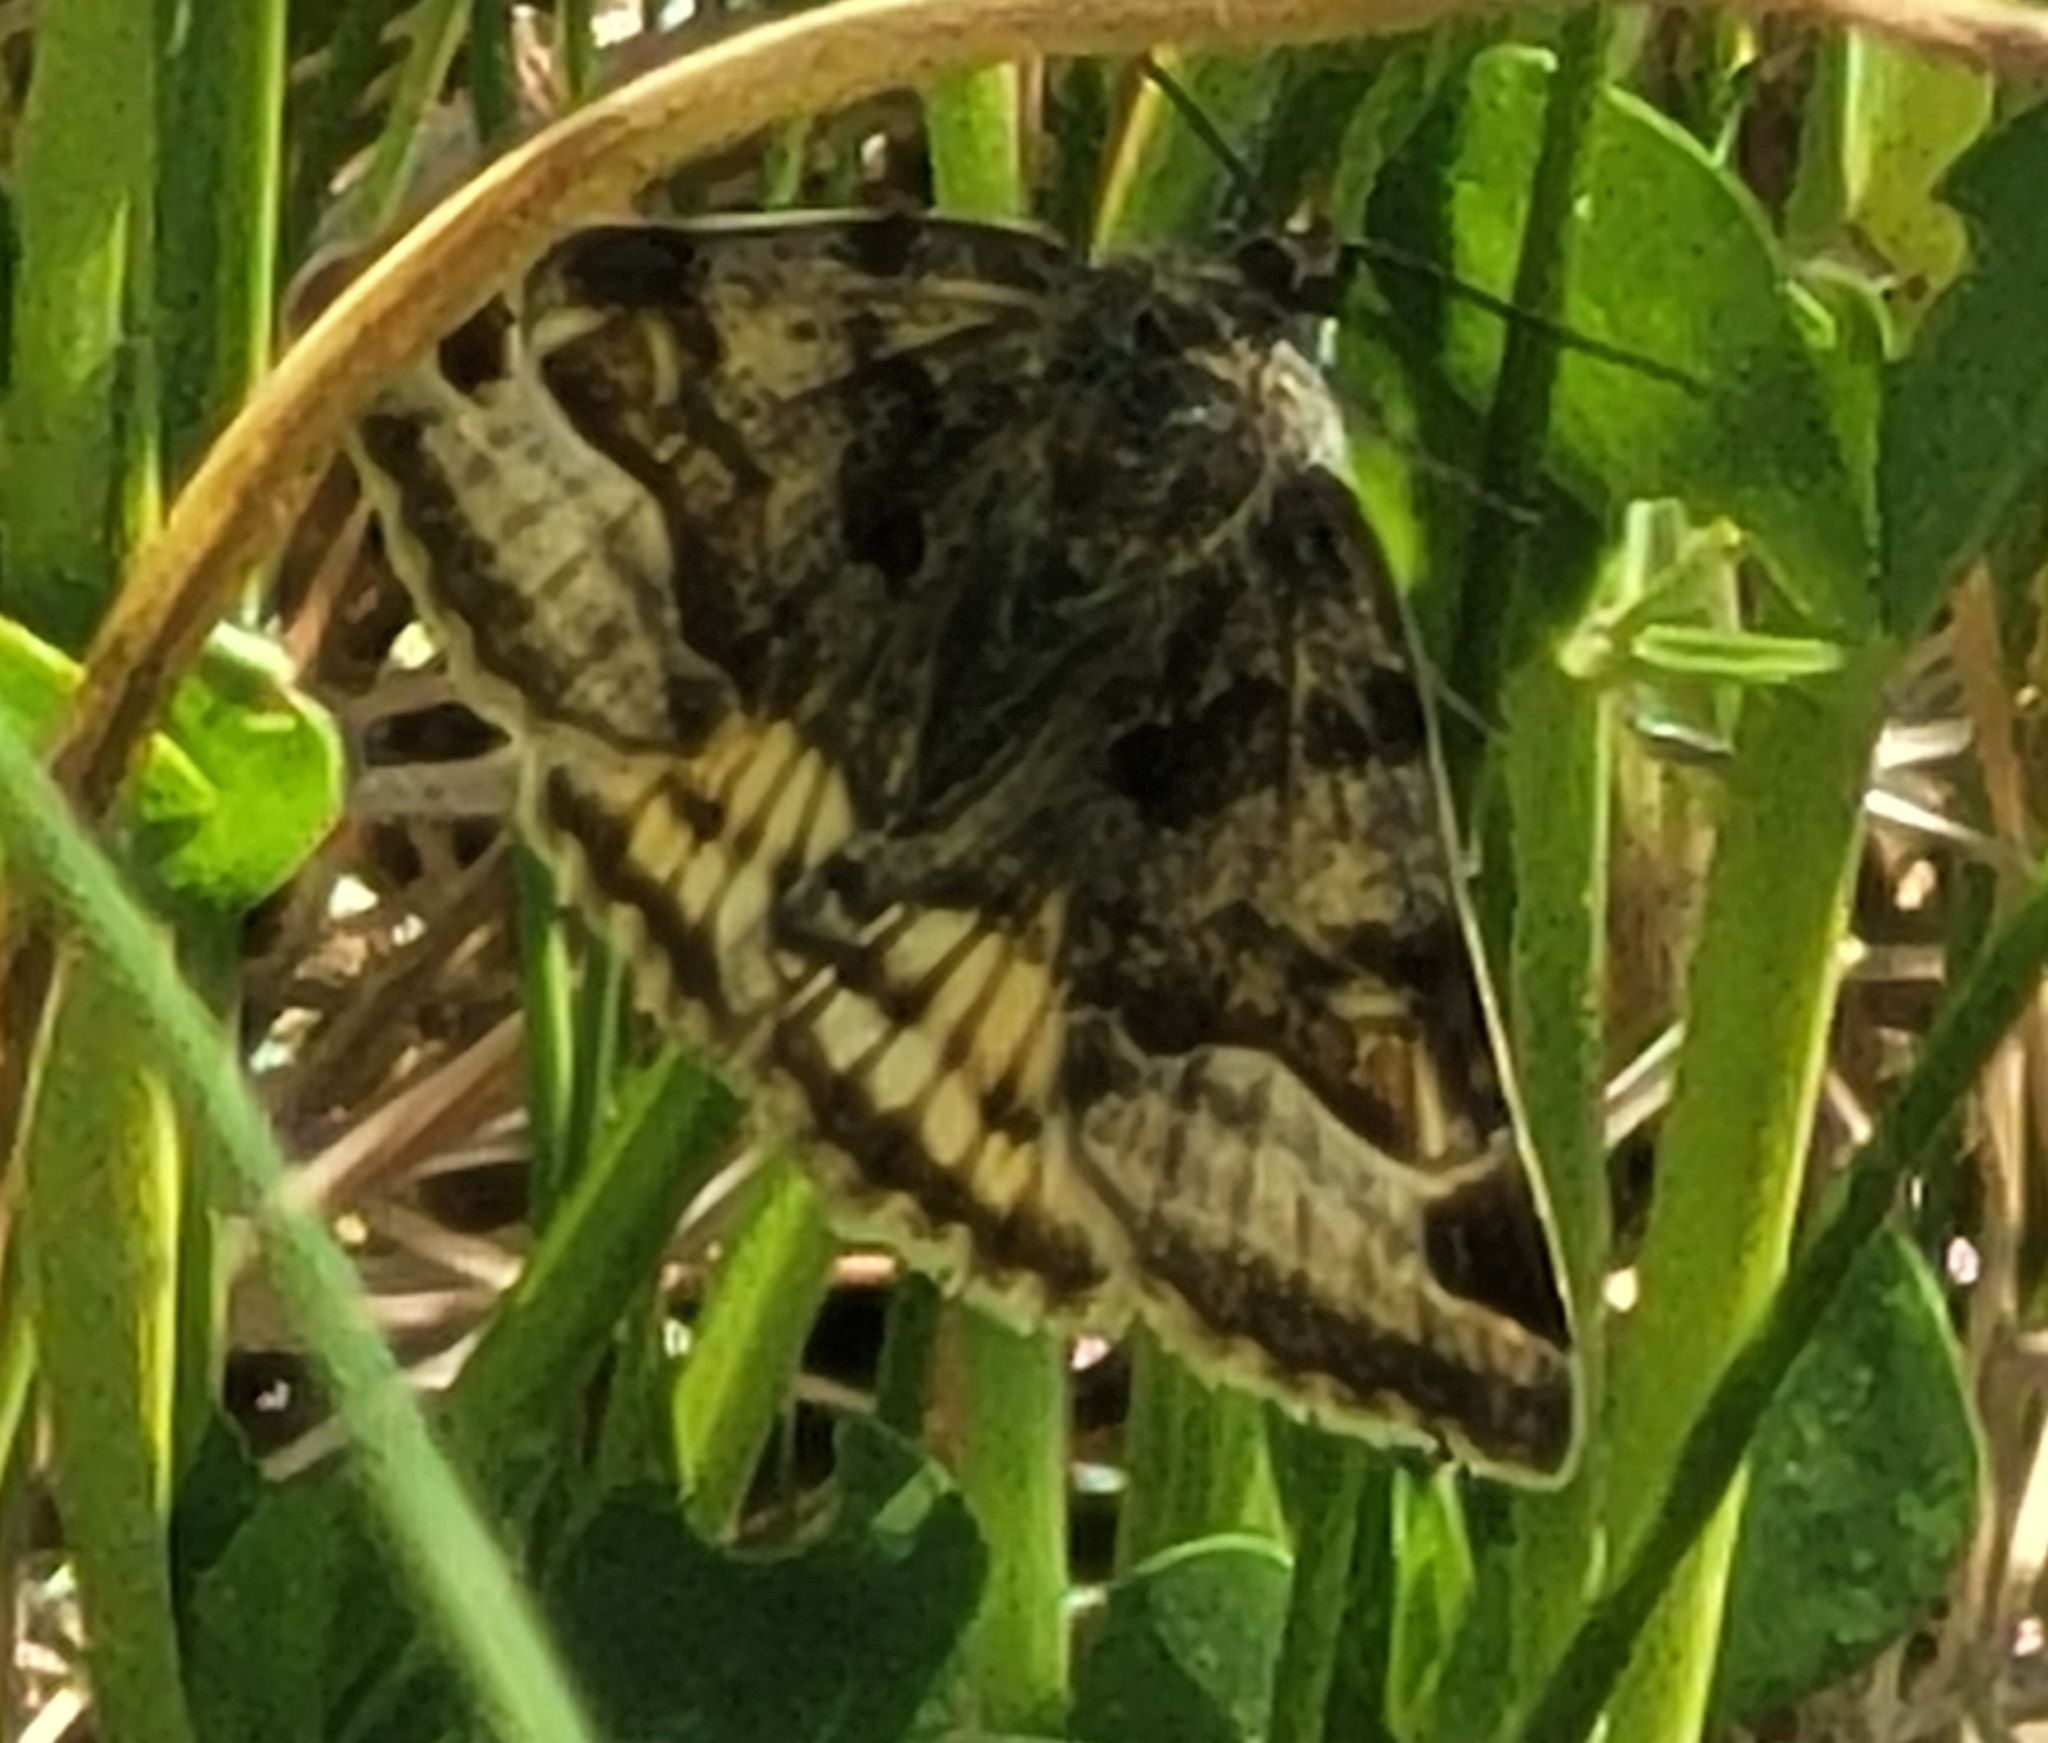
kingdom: Animalia
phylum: Arthropoda
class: Insecta
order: Lepidoptera
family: Erebidae
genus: Euclidia
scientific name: Euclidia glyphica
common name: Burnet companion
